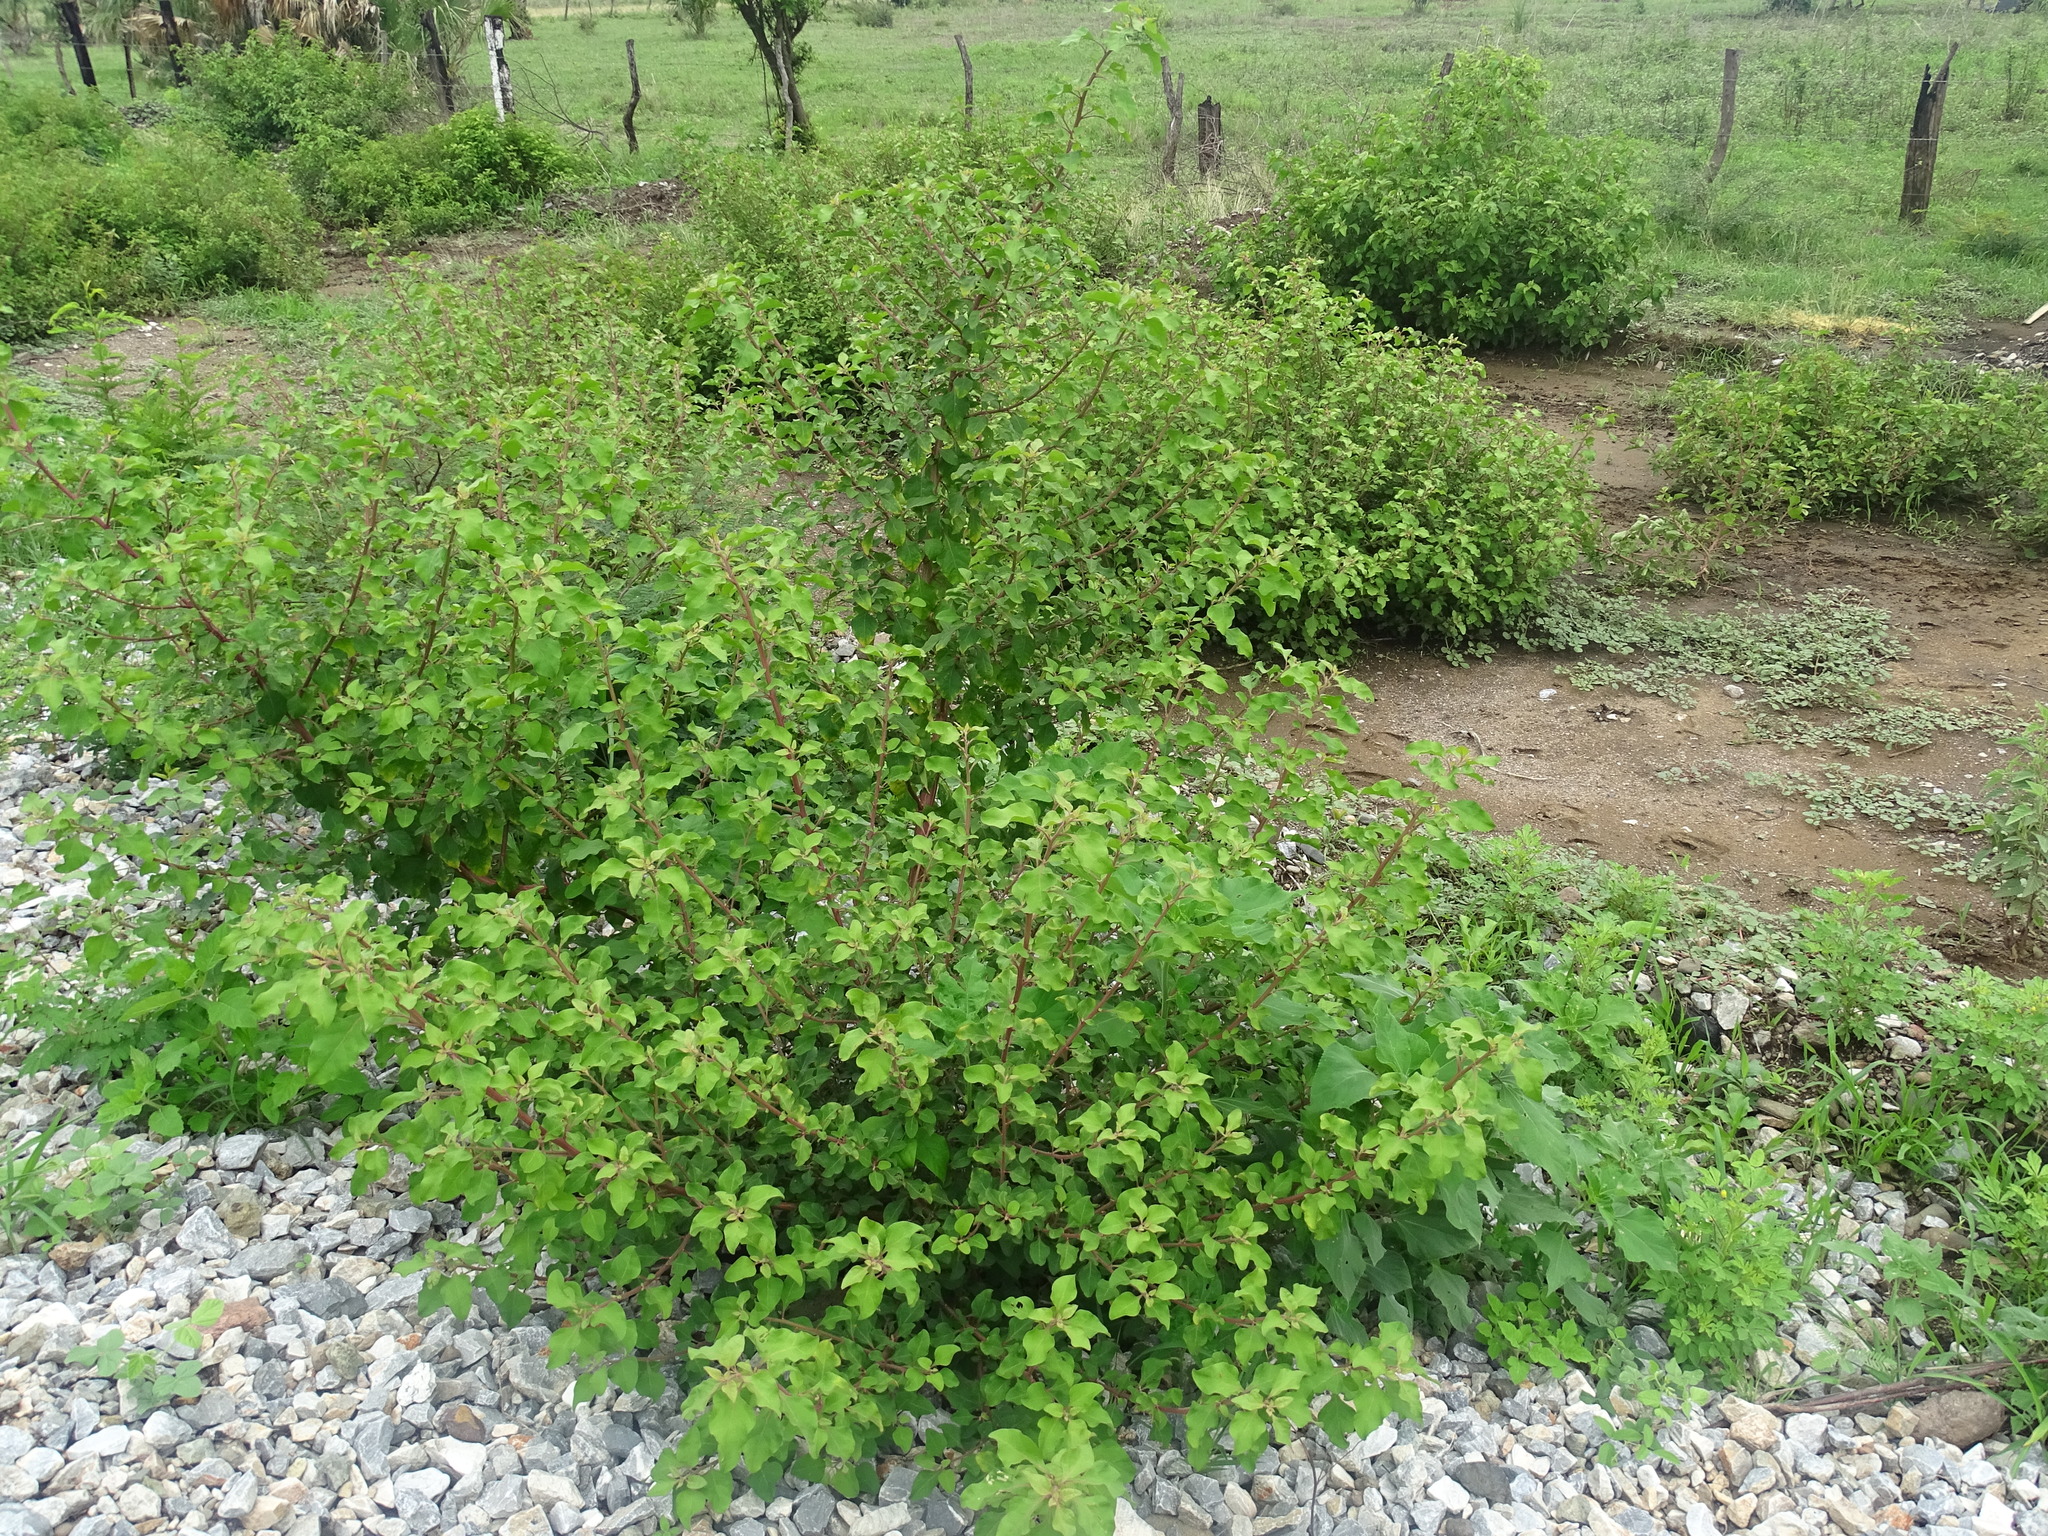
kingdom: Plantae
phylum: Tracheophyta
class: Magnoliopsida
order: Caryophyllales
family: Nyctaginaceae
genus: Salpianthus
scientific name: Salpianthus arenarius
